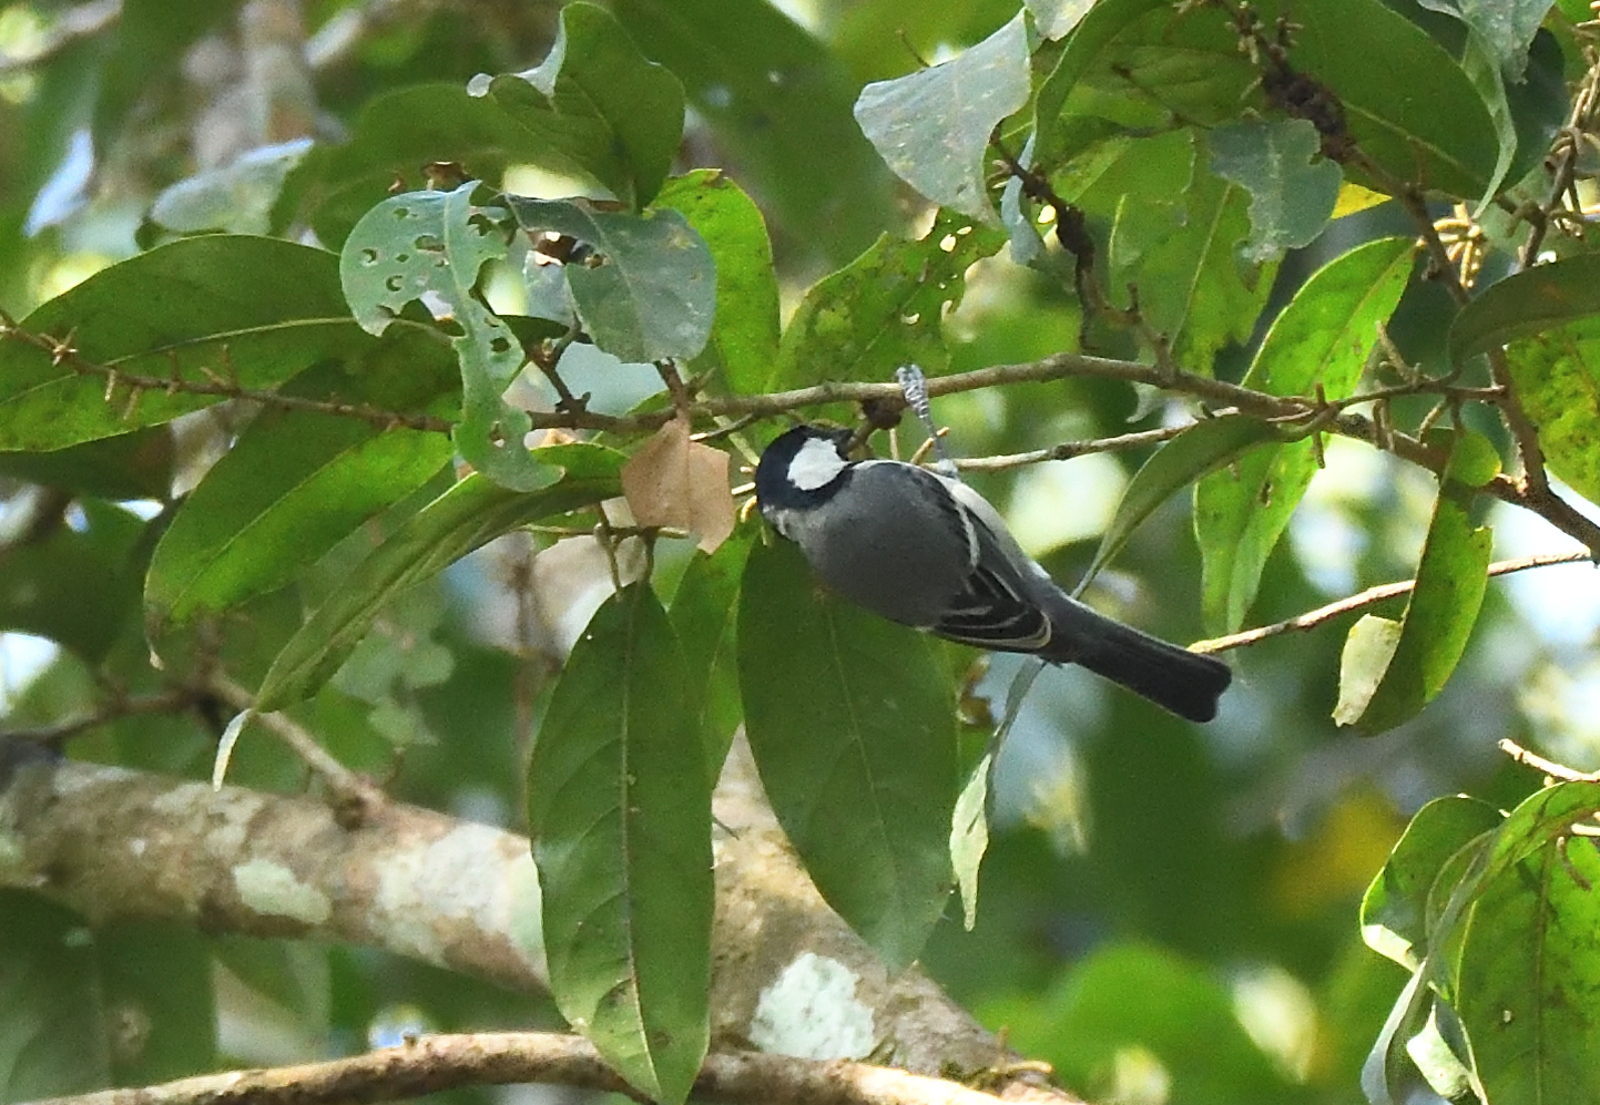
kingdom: Animalia
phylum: Chordata
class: Aves
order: Passeriformes
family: Paridae
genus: Parus
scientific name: Parus cinereus
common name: Cinereous tit
